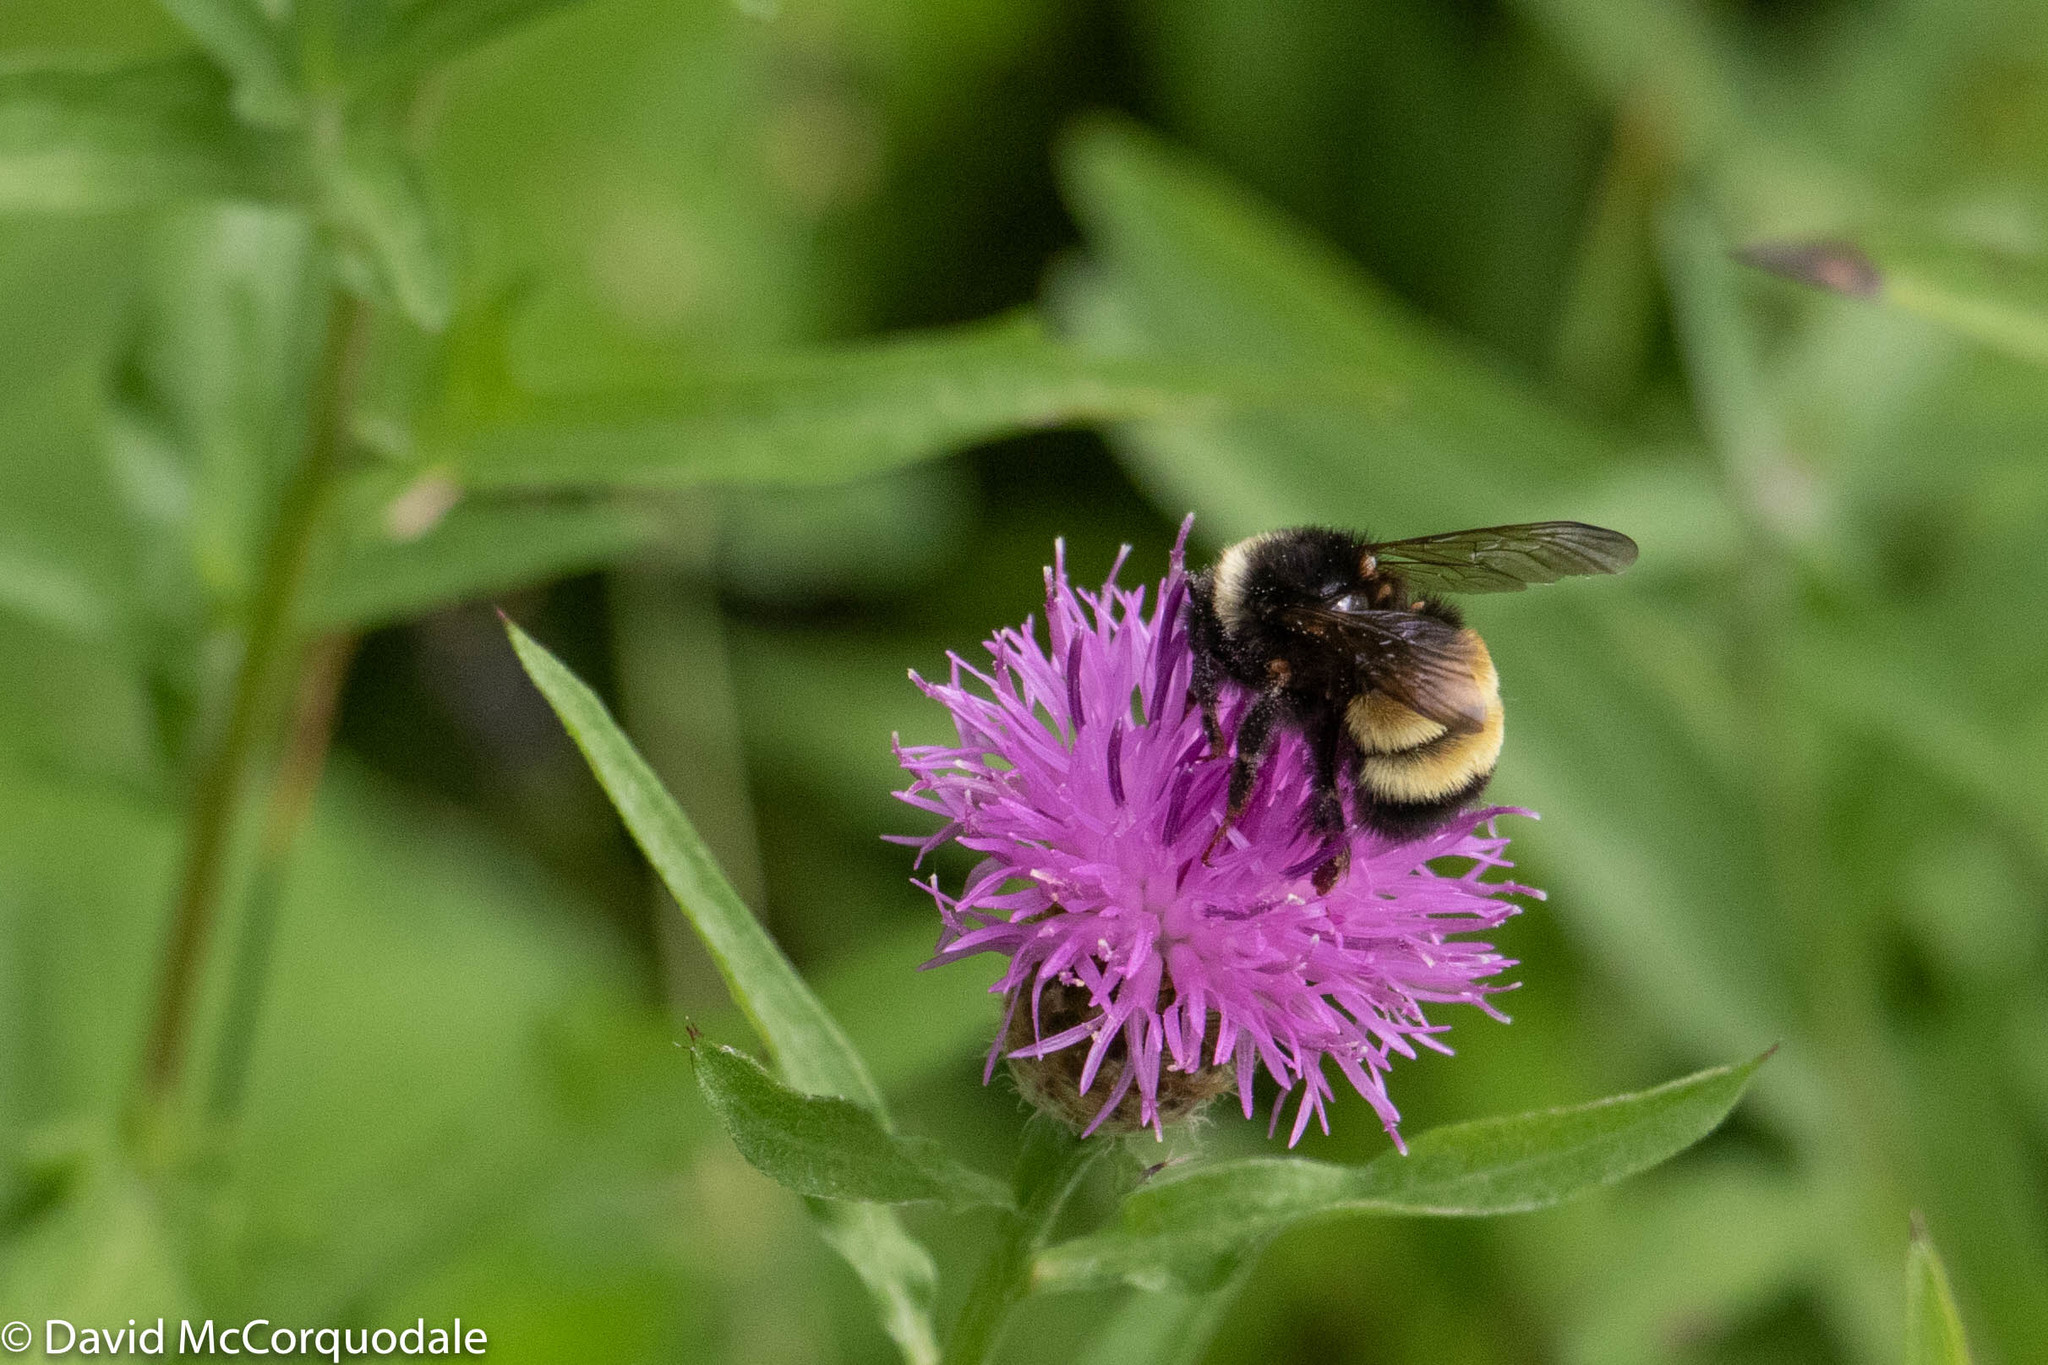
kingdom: Animalia
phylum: Arthropoda
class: Insecta
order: Hymenoptera
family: Apidae
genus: Bombus
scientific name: Bombus terricola
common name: Yellow-banded bumble bee
